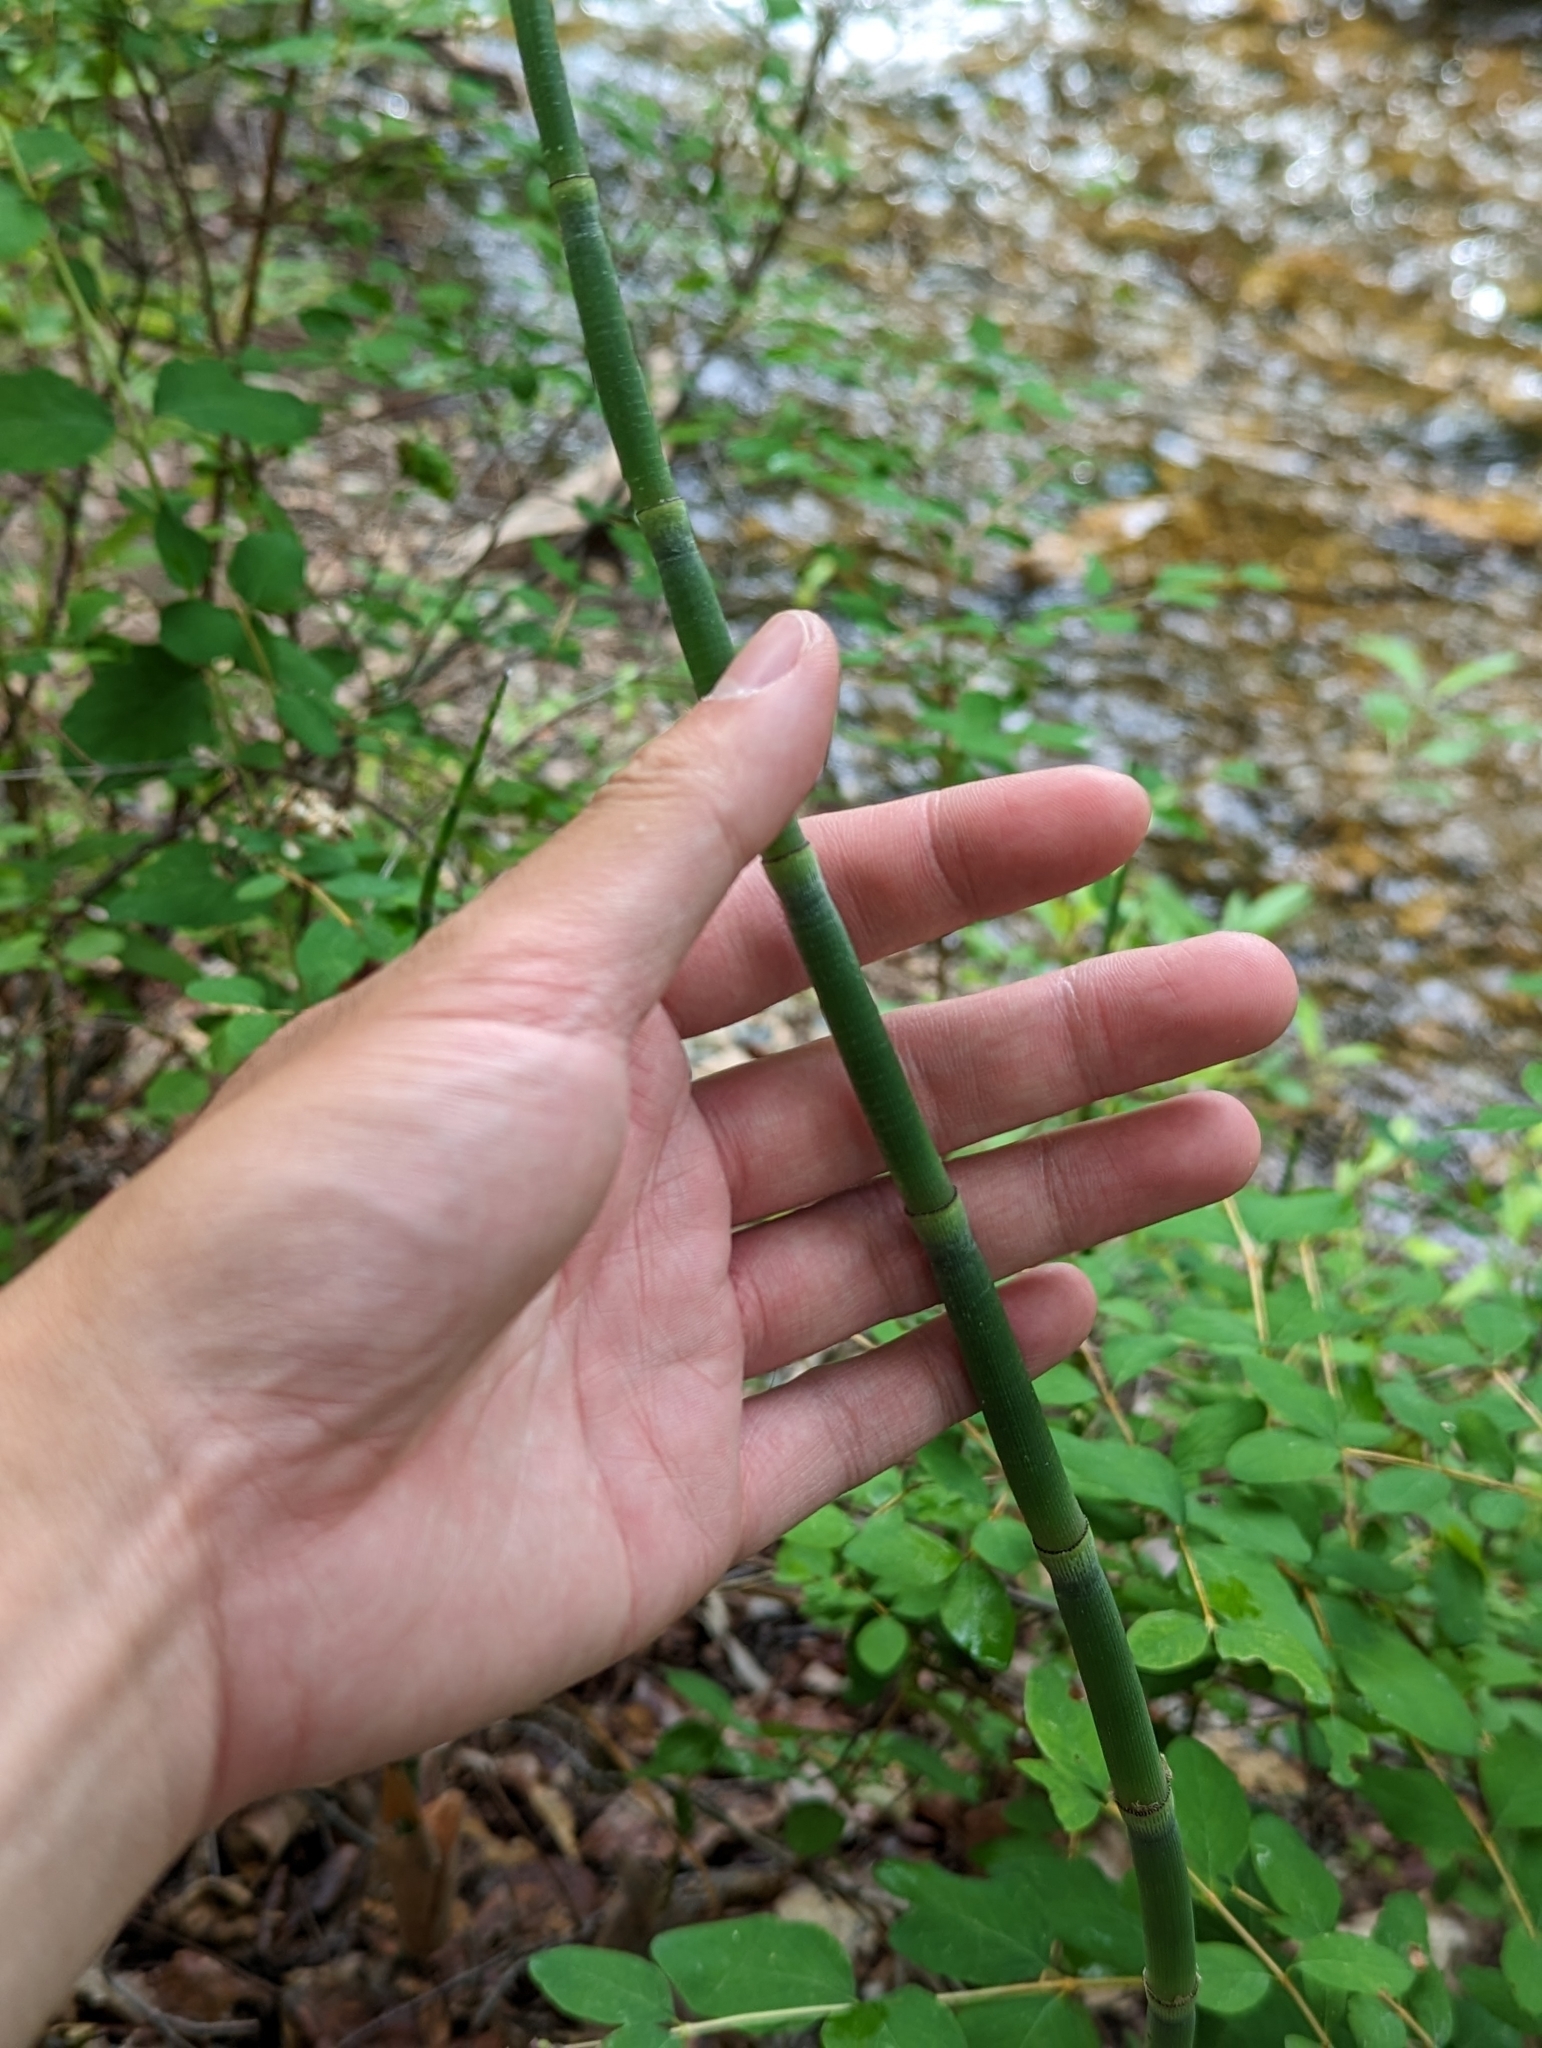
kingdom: Plantae
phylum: Tracheophyta
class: Polypodiopsida
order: Equisetales
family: Equisetaceae
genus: Equisetum
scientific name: Equisetum praealtum
